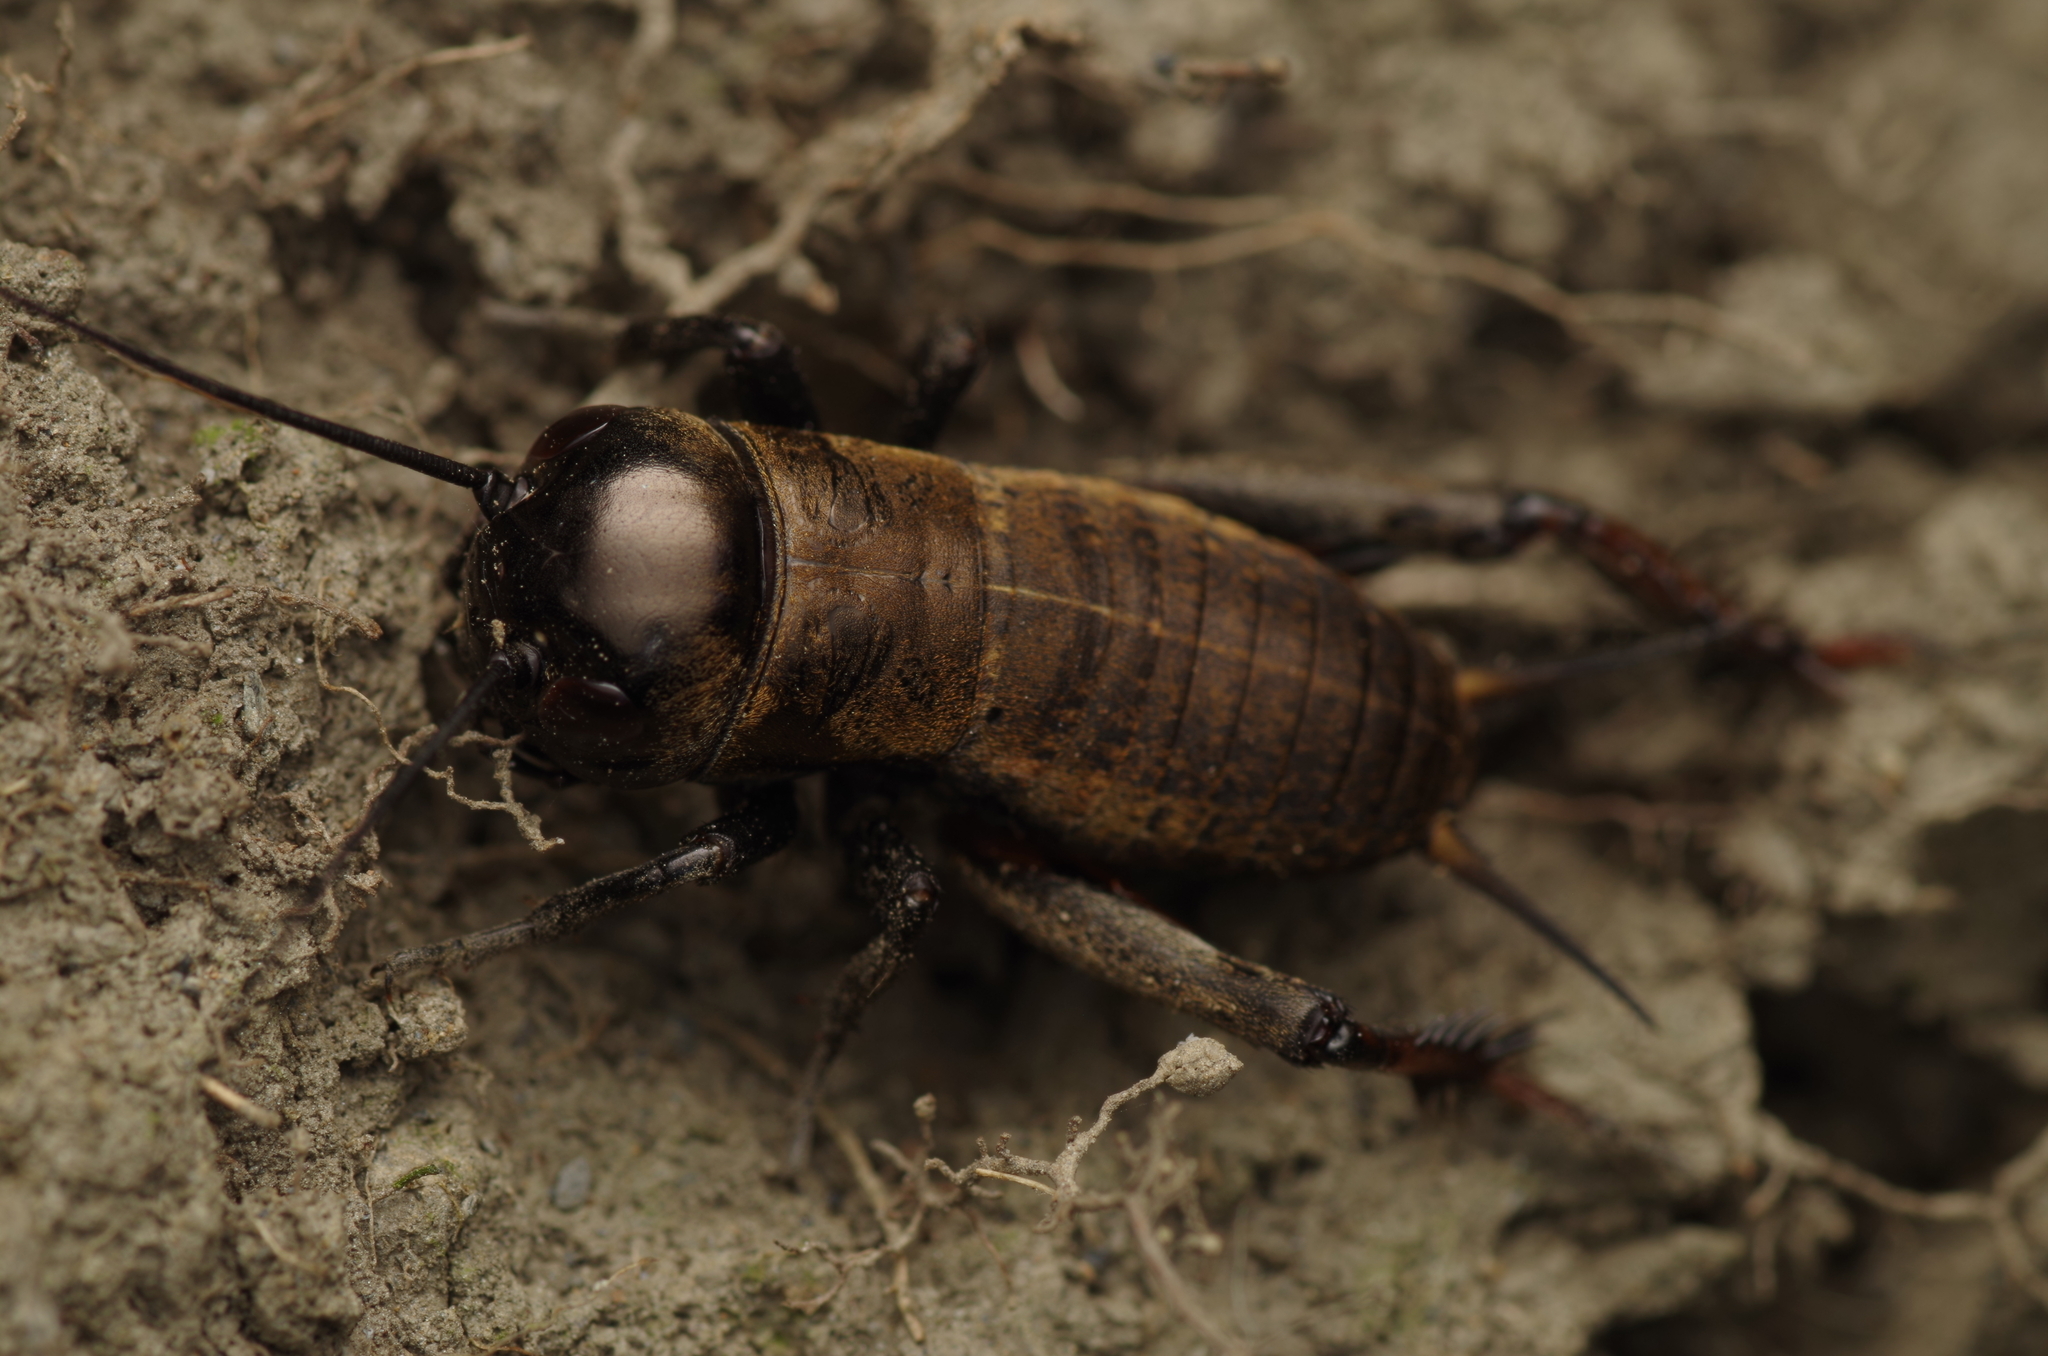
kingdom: Animalia
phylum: Arthropoda
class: Insecta
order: Orthoptera
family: Gryllidae
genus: Gryllus
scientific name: Gryllus campestris
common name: Field cricket
